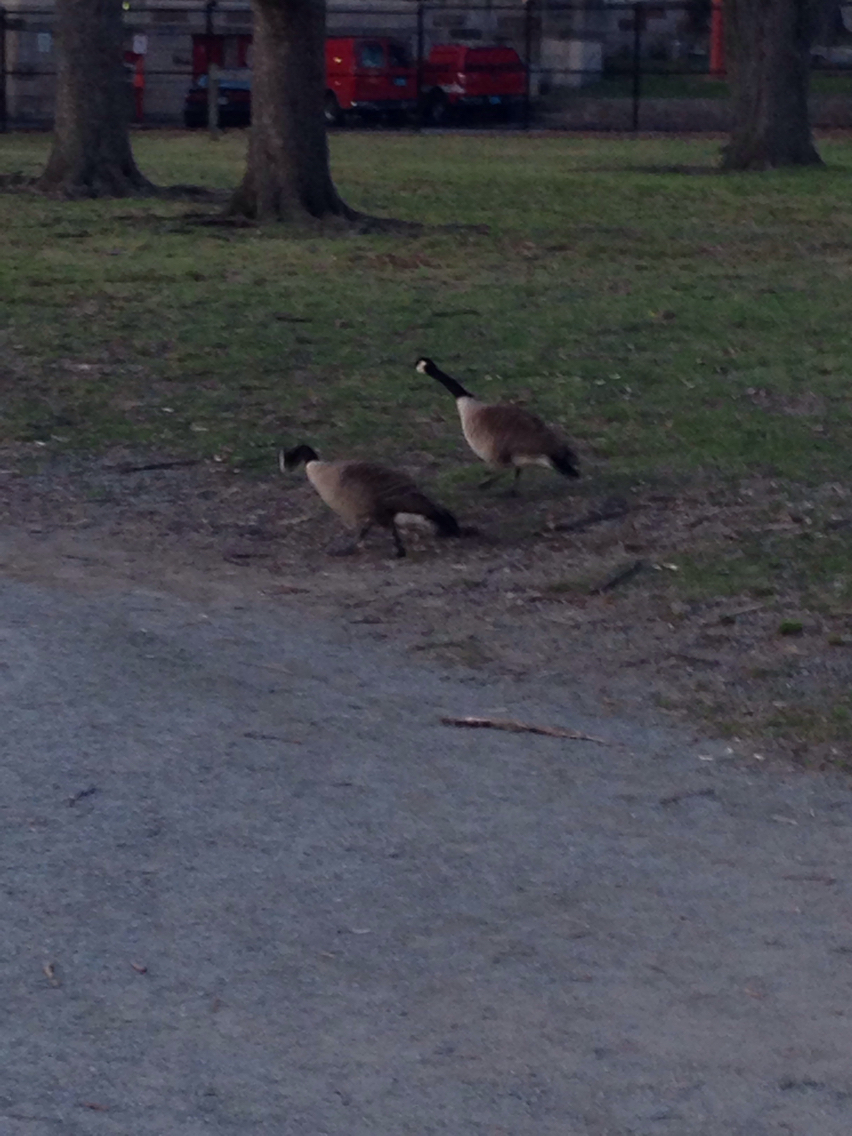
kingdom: Animalia
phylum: Chordata
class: Aves
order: Anseriformes
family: Anatidae
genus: Branta
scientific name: Branta canadensis
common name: Canada goose
